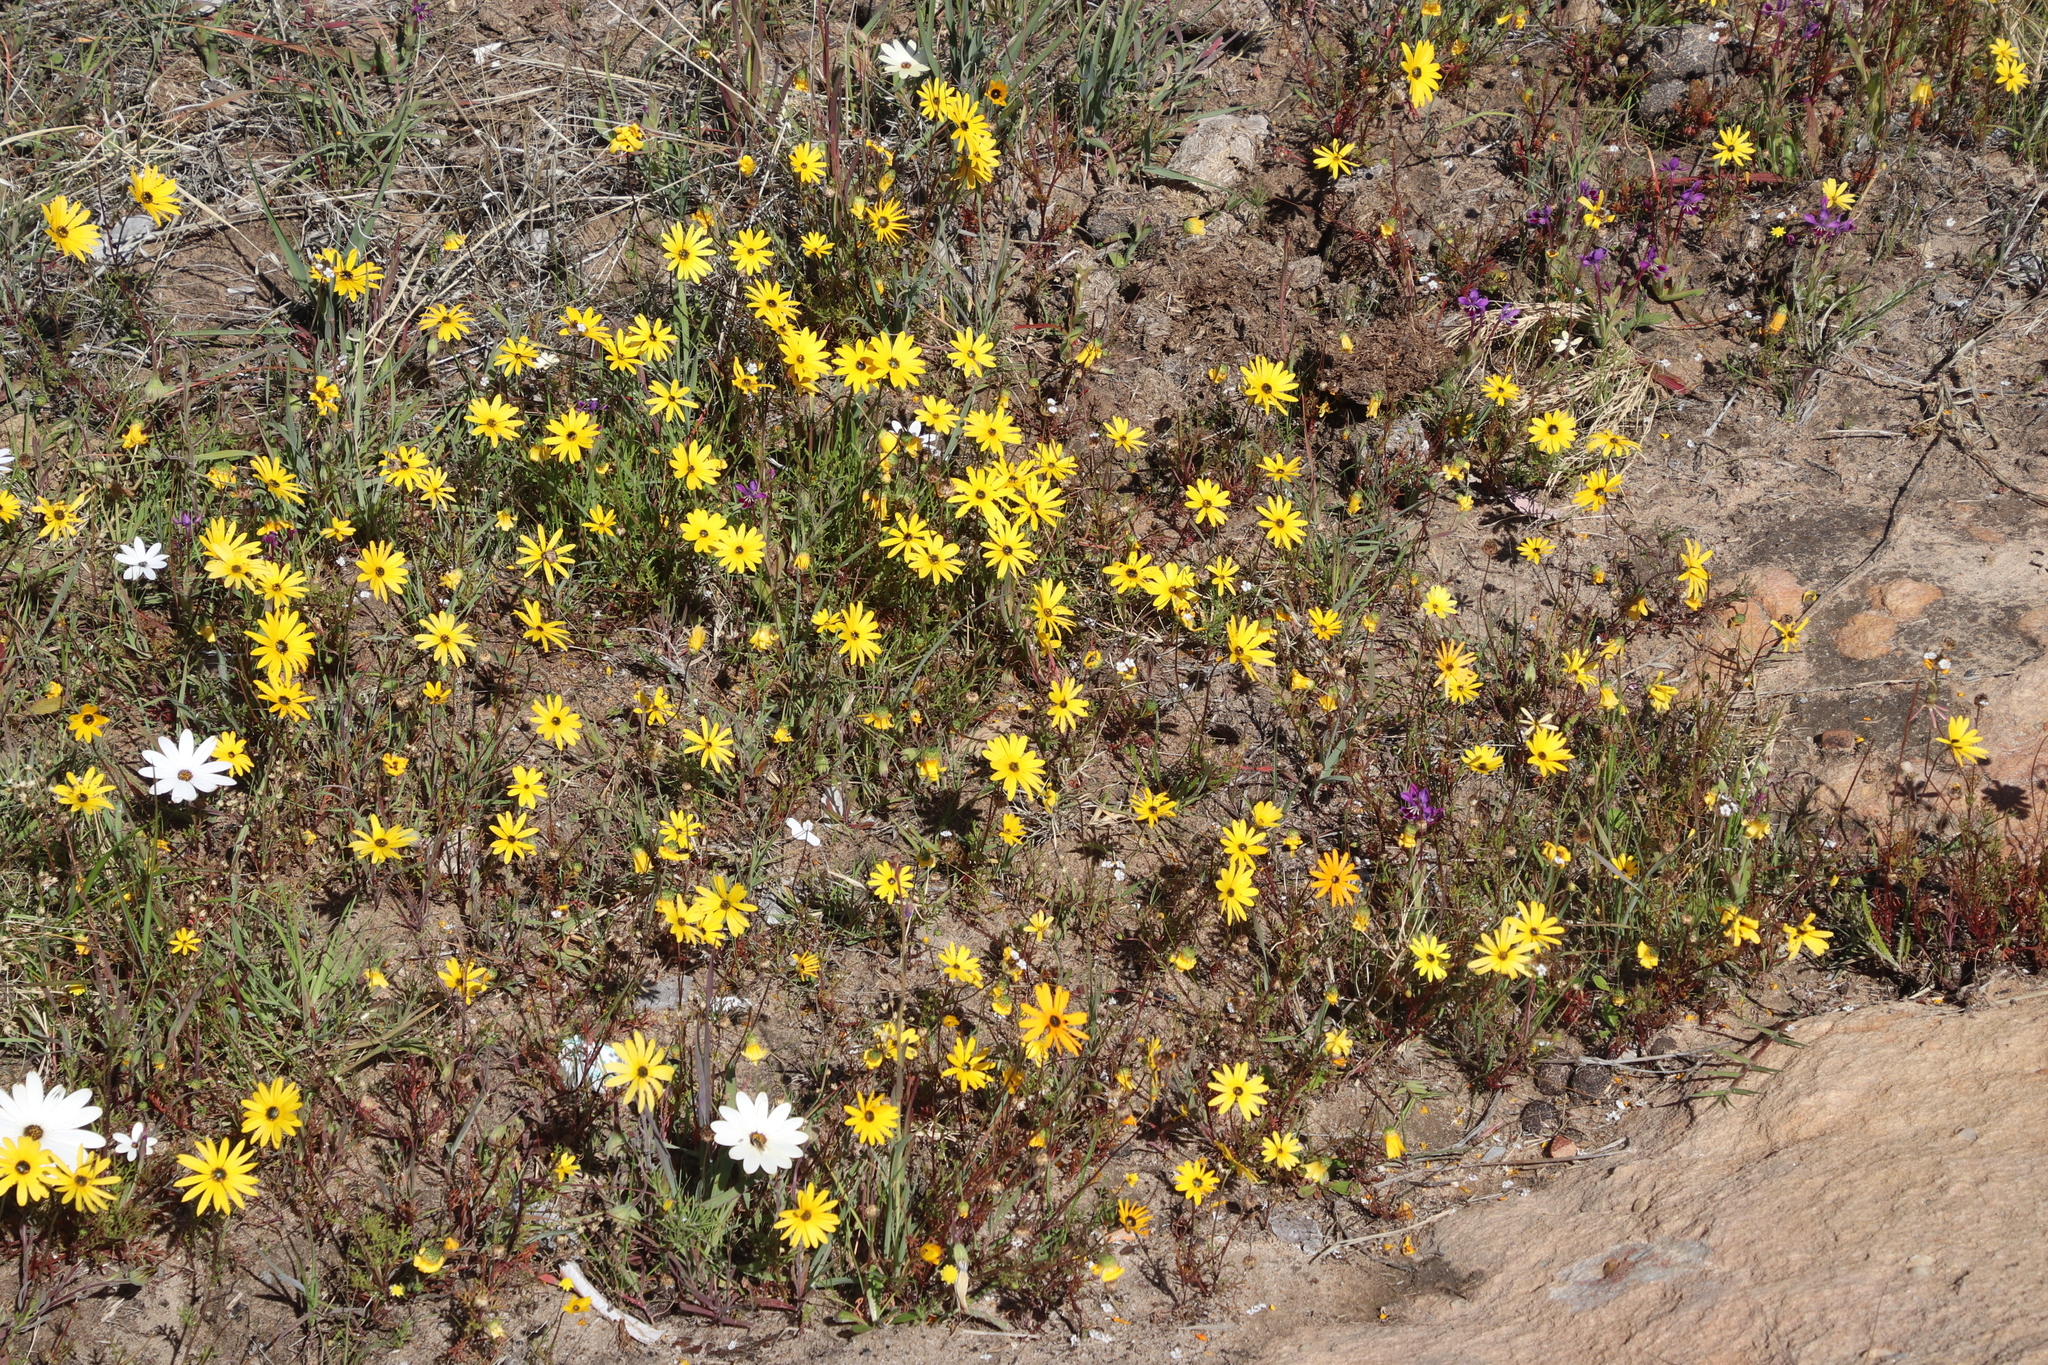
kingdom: Plantae
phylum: Tracheophyta
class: Magnoliopsida
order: Asterales
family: Asteraceae
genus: Dimorphotheca
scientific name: Dimorphotheca sinuata
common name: Glandular cape marigold
